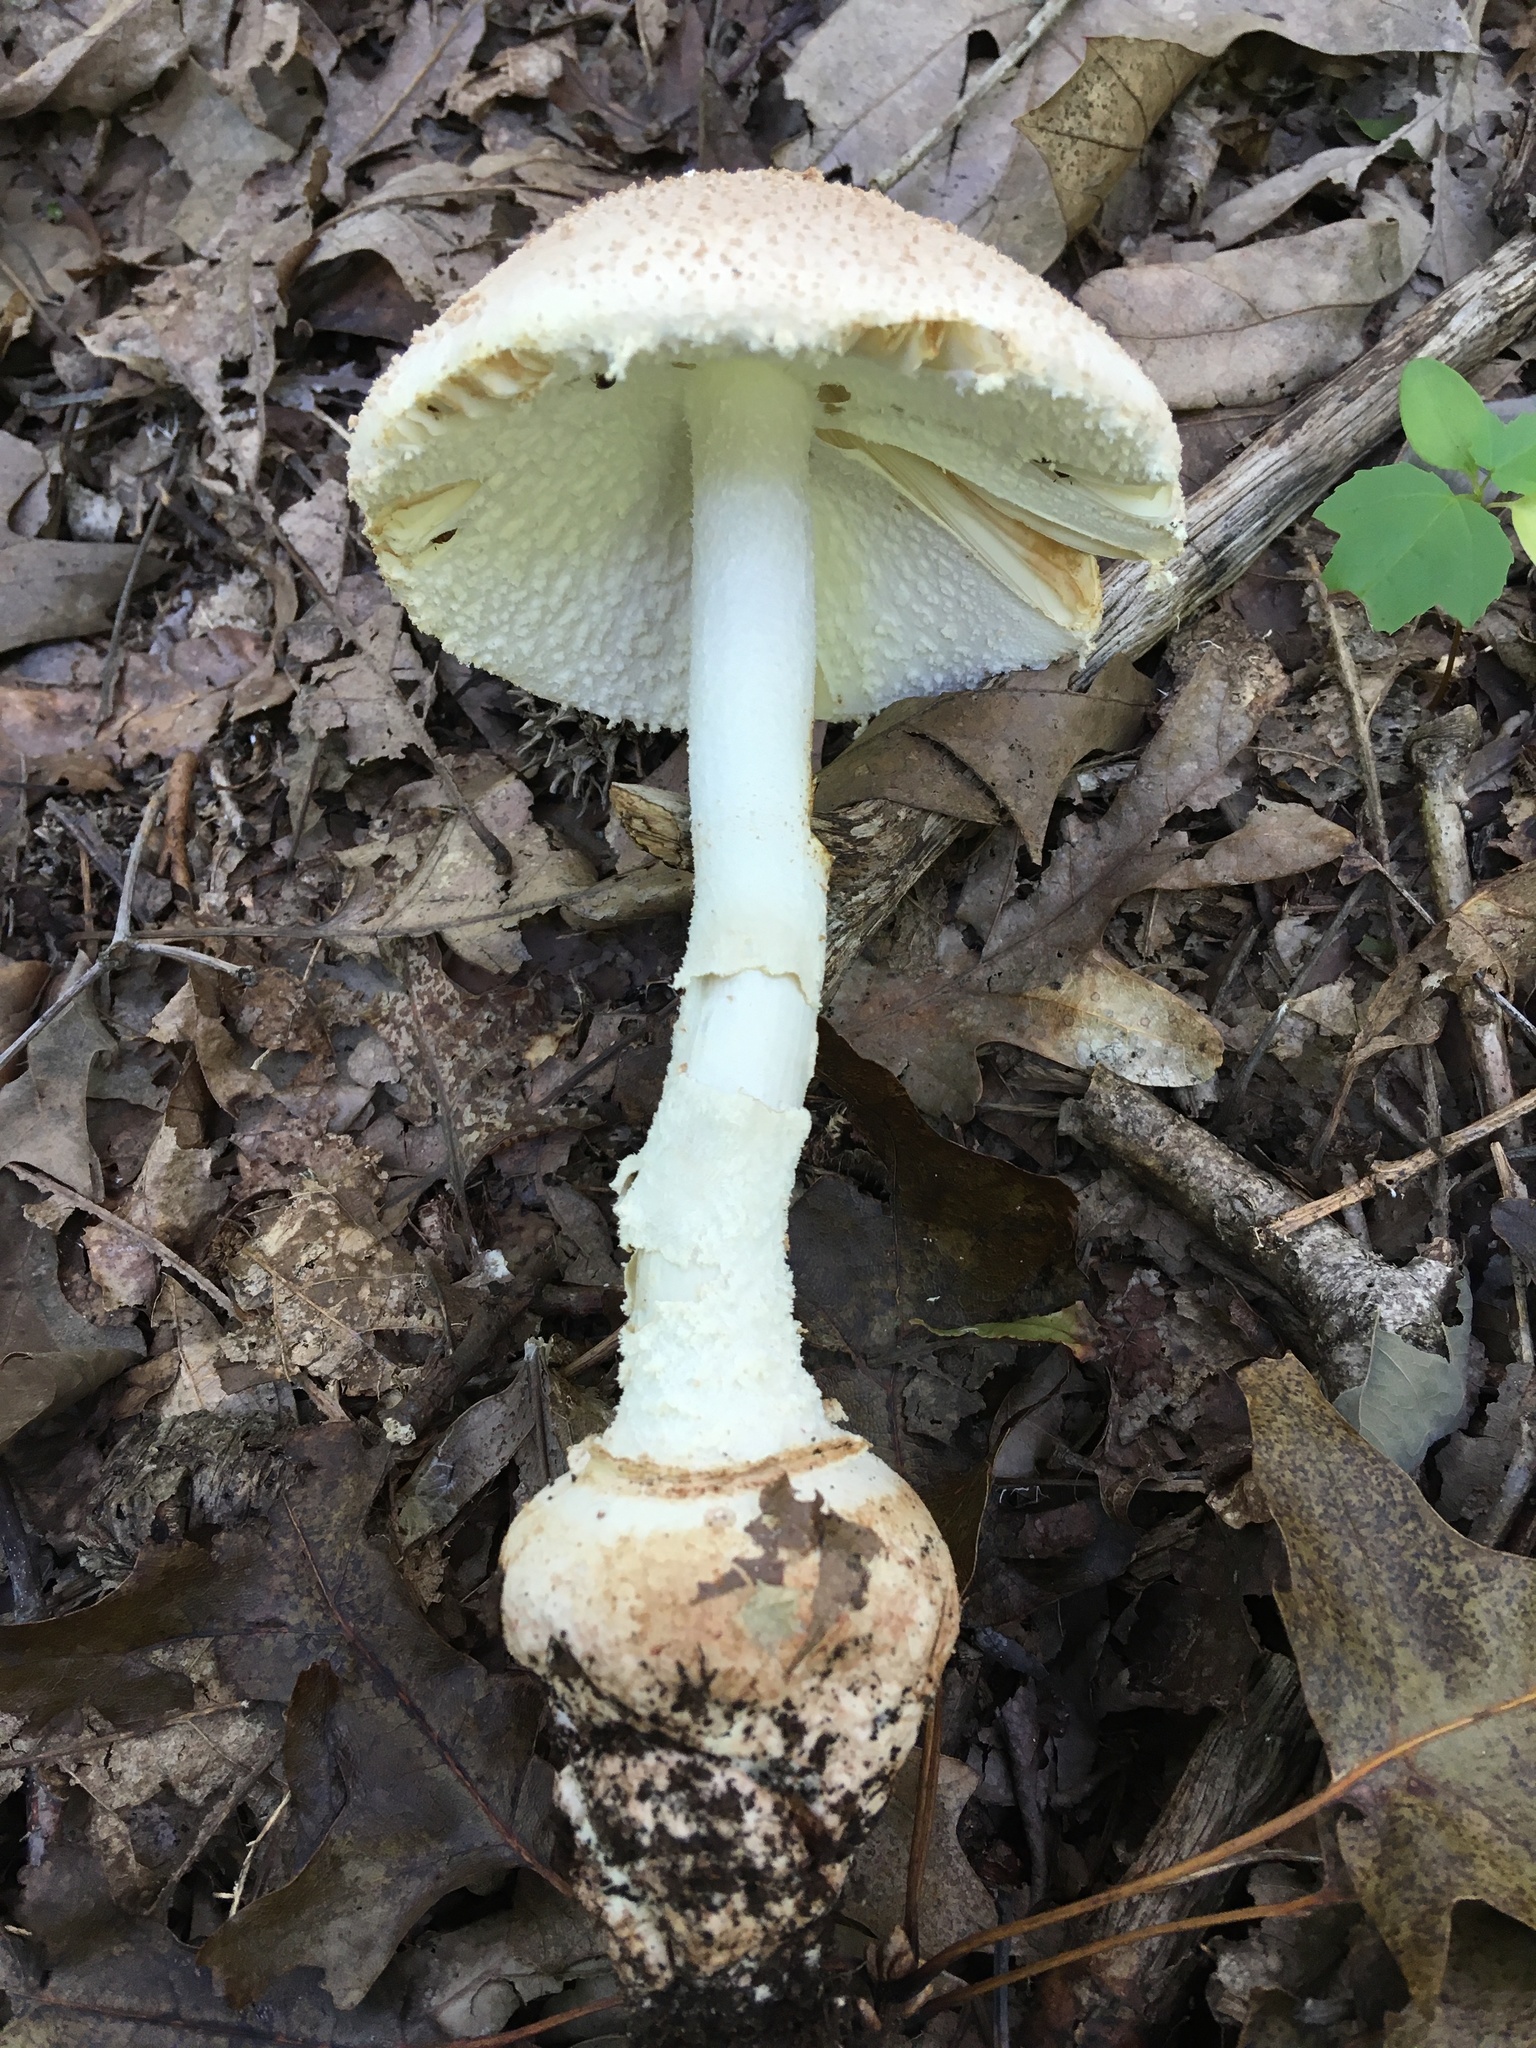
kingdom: Fungi
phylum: Basidiomycota
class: Agaricomycetes
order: Agaricales
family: Amanitaceae
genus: Amanita
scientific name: Amanita daucipes
